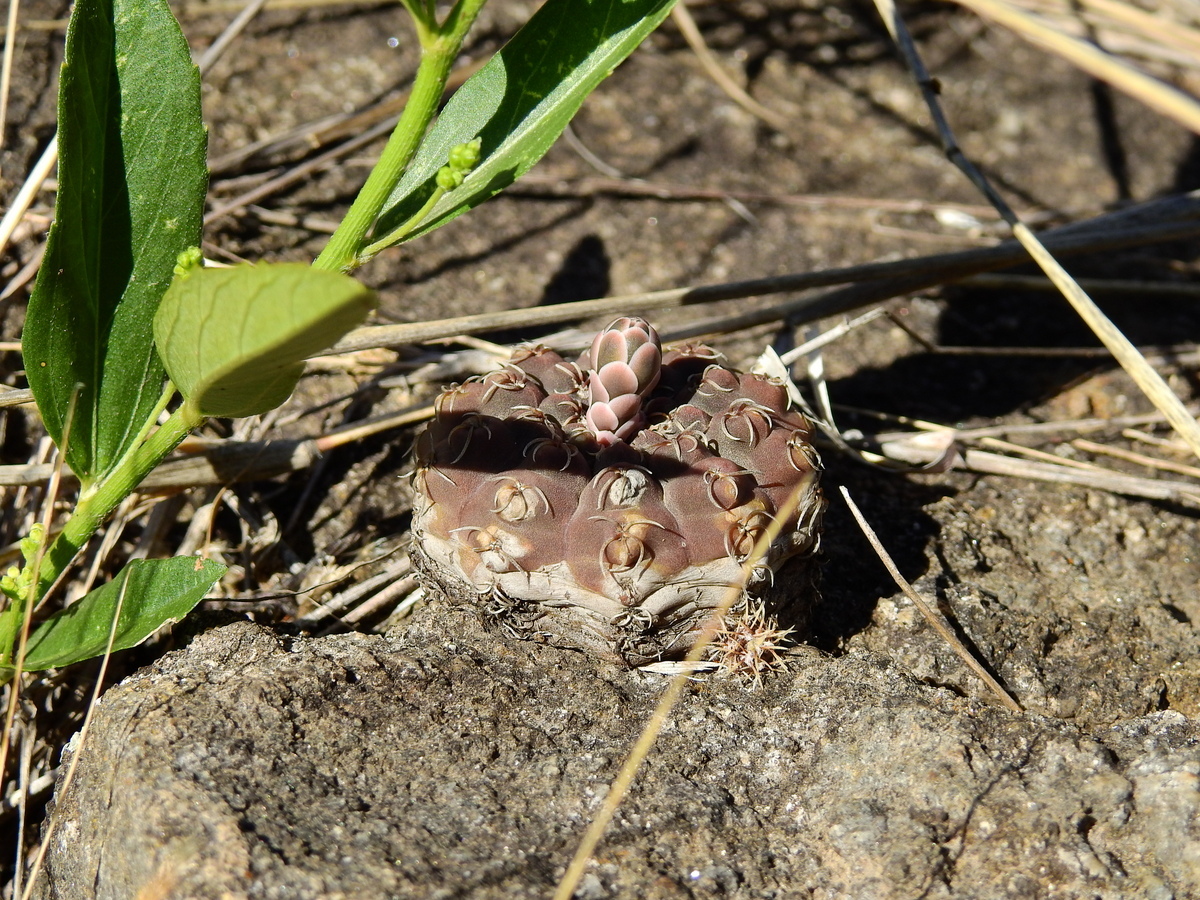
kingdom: Plantae
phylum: Tracheophyta
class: Magnoliopsida
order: Caryophyllales
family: Cactaceae
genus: Gymnocalycium
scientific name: Gymnocalycium quehlianum
